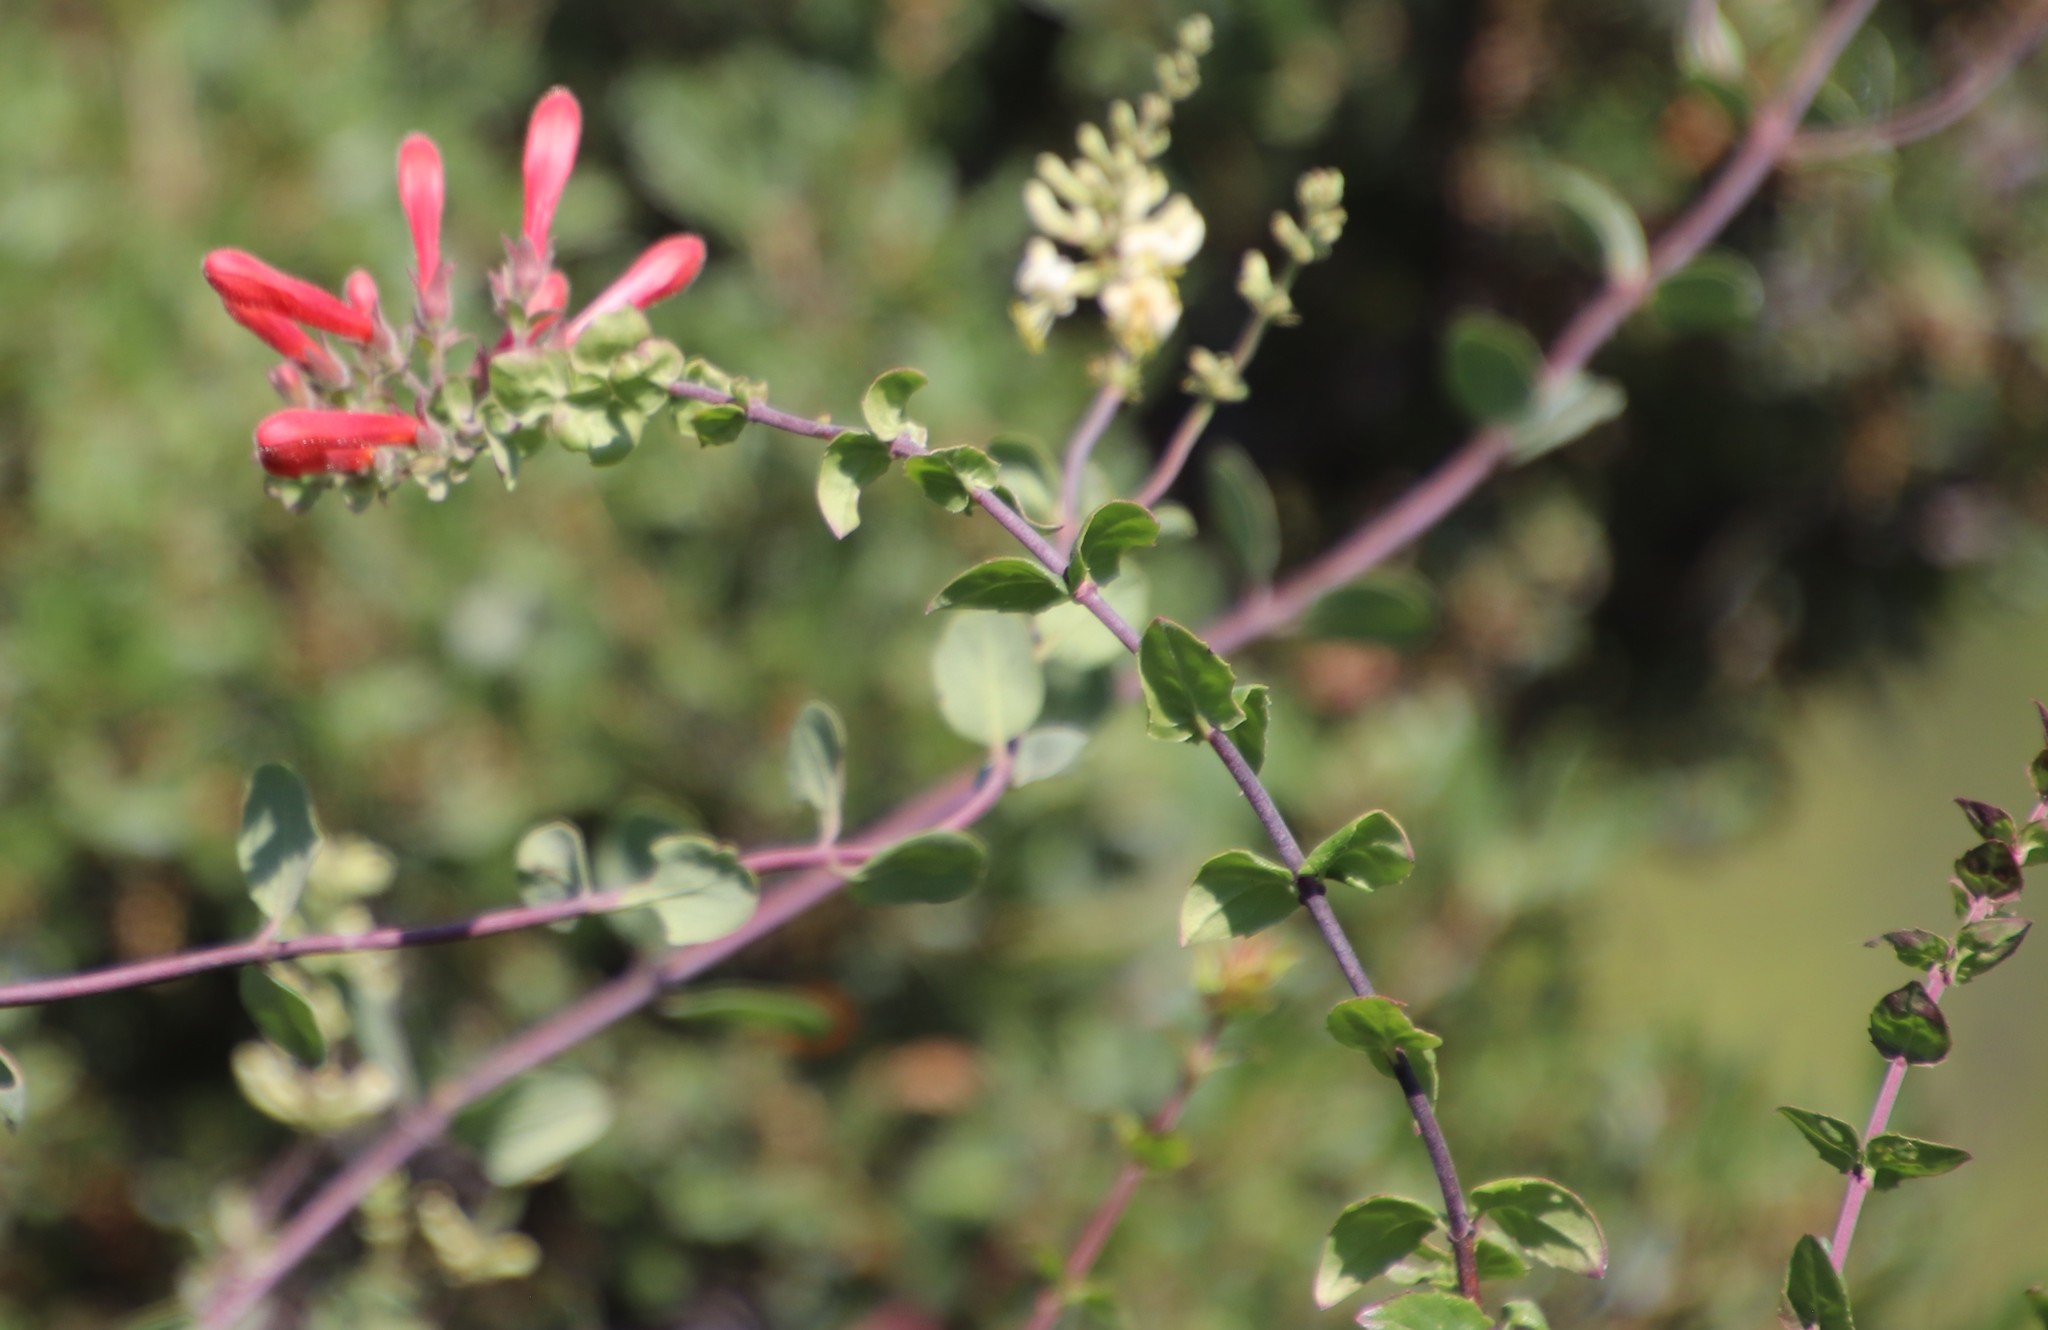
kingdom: Plantae
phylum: Tracheophyta
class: Magnoliopsida
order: Lamiales
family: Plantaginaceae
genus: Keckiella
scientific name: Keckiella cordifolia
